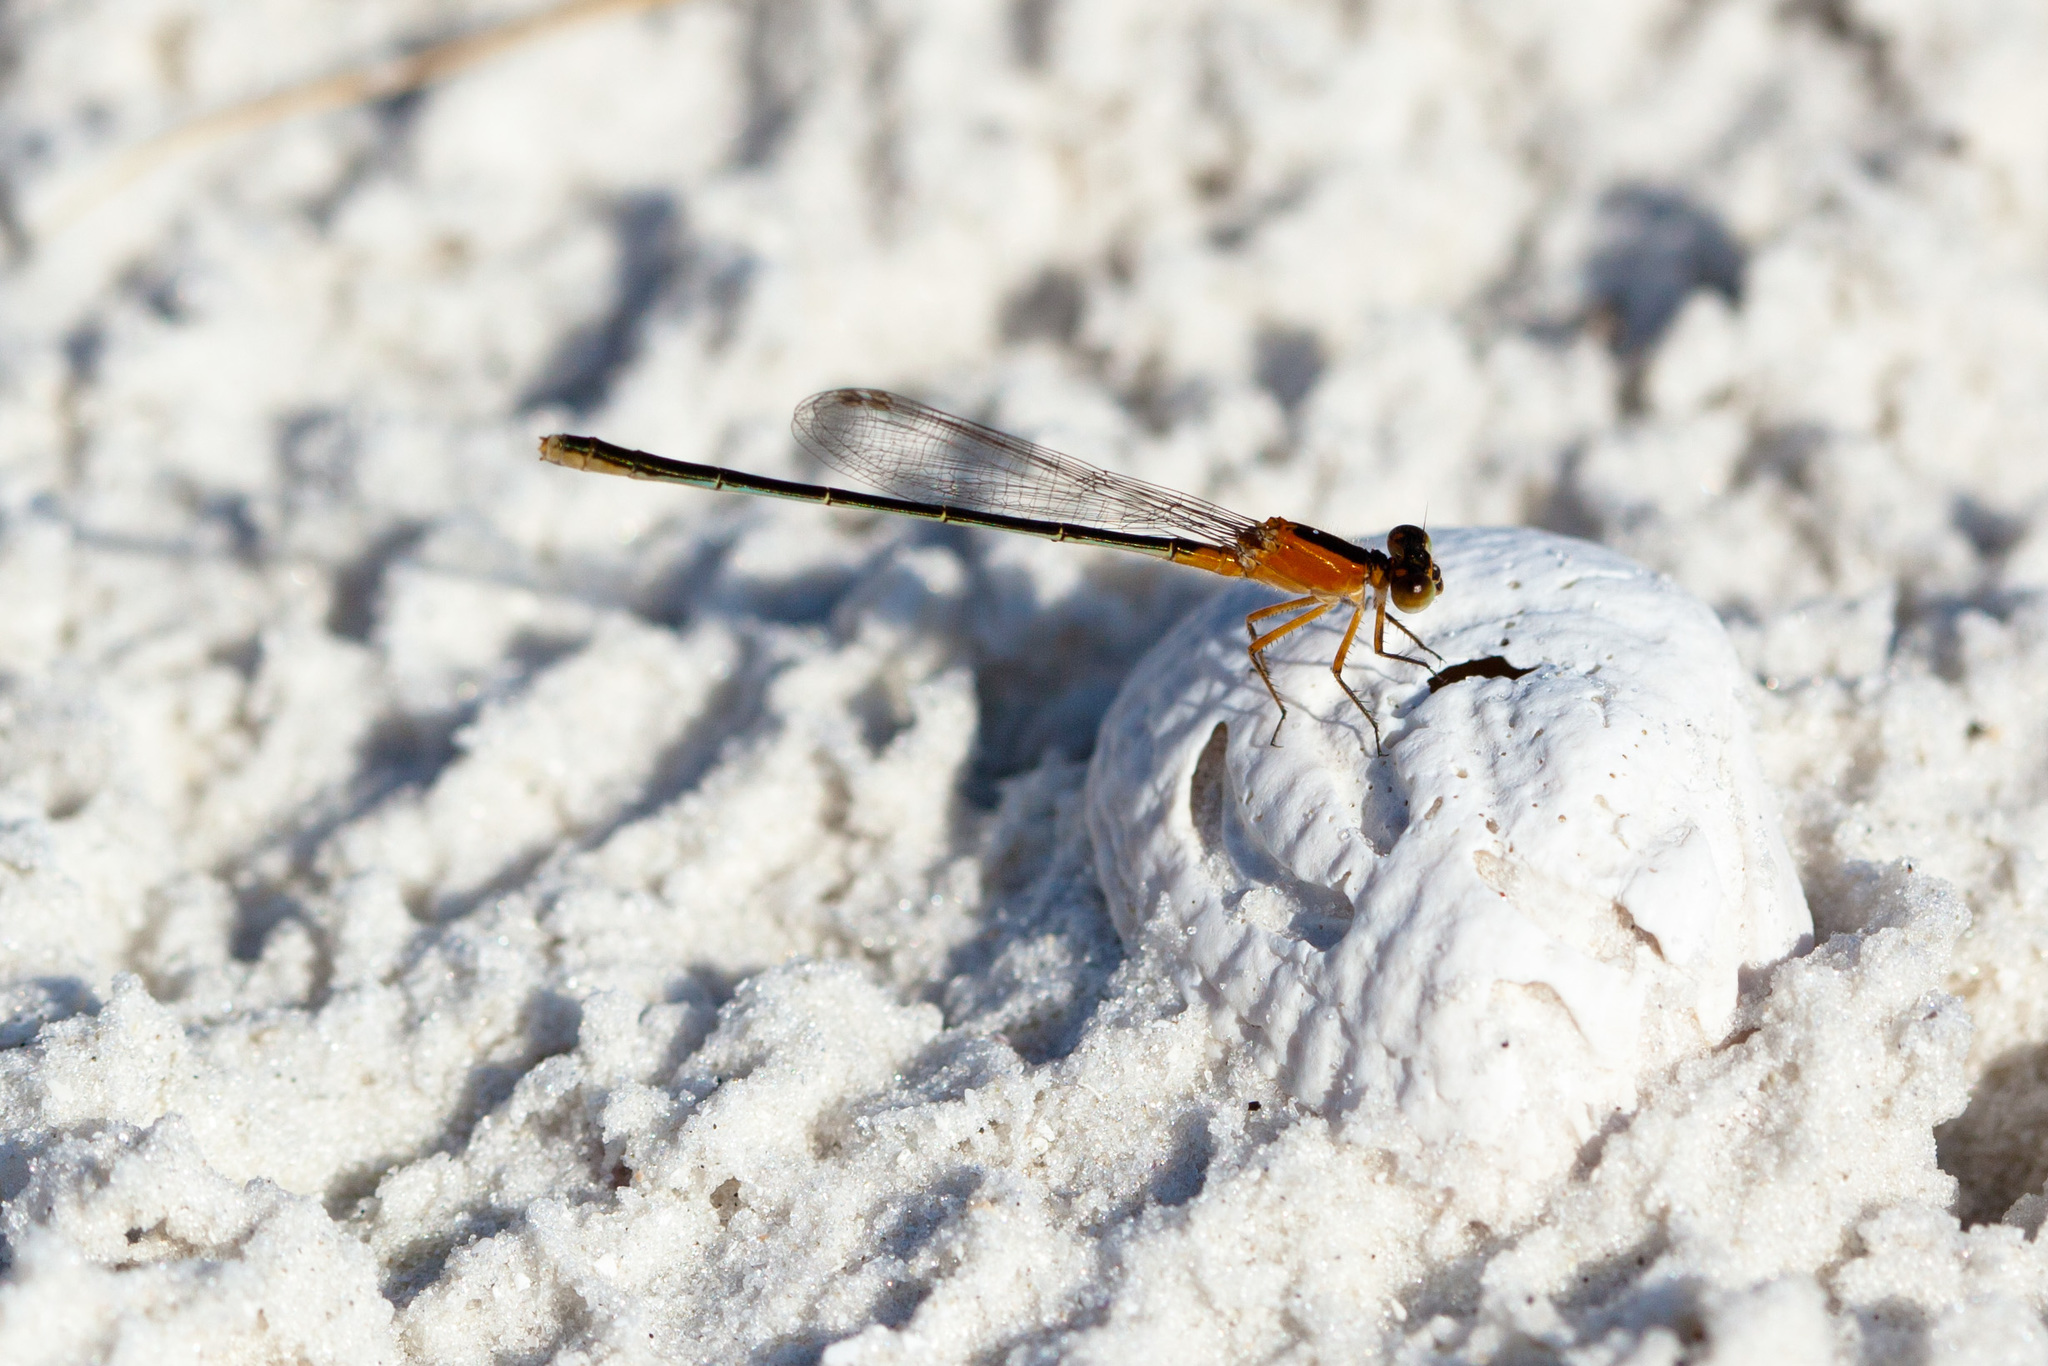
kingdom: Animalia
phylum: Arthropoda
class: Insecta
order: Odonata
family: Coenagrionidae
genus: Ischnura
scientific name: Ischnura ramburii
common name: Rambur's forktail
